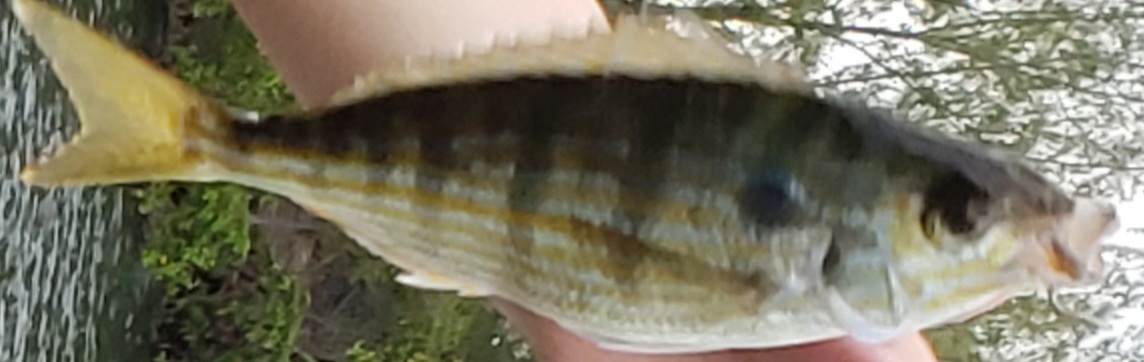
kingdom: Animalia
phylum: Chordata
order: Perciformes
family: Sparidae
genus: Lagodon
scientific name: Lagodon rhomboides
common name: Pinfish
